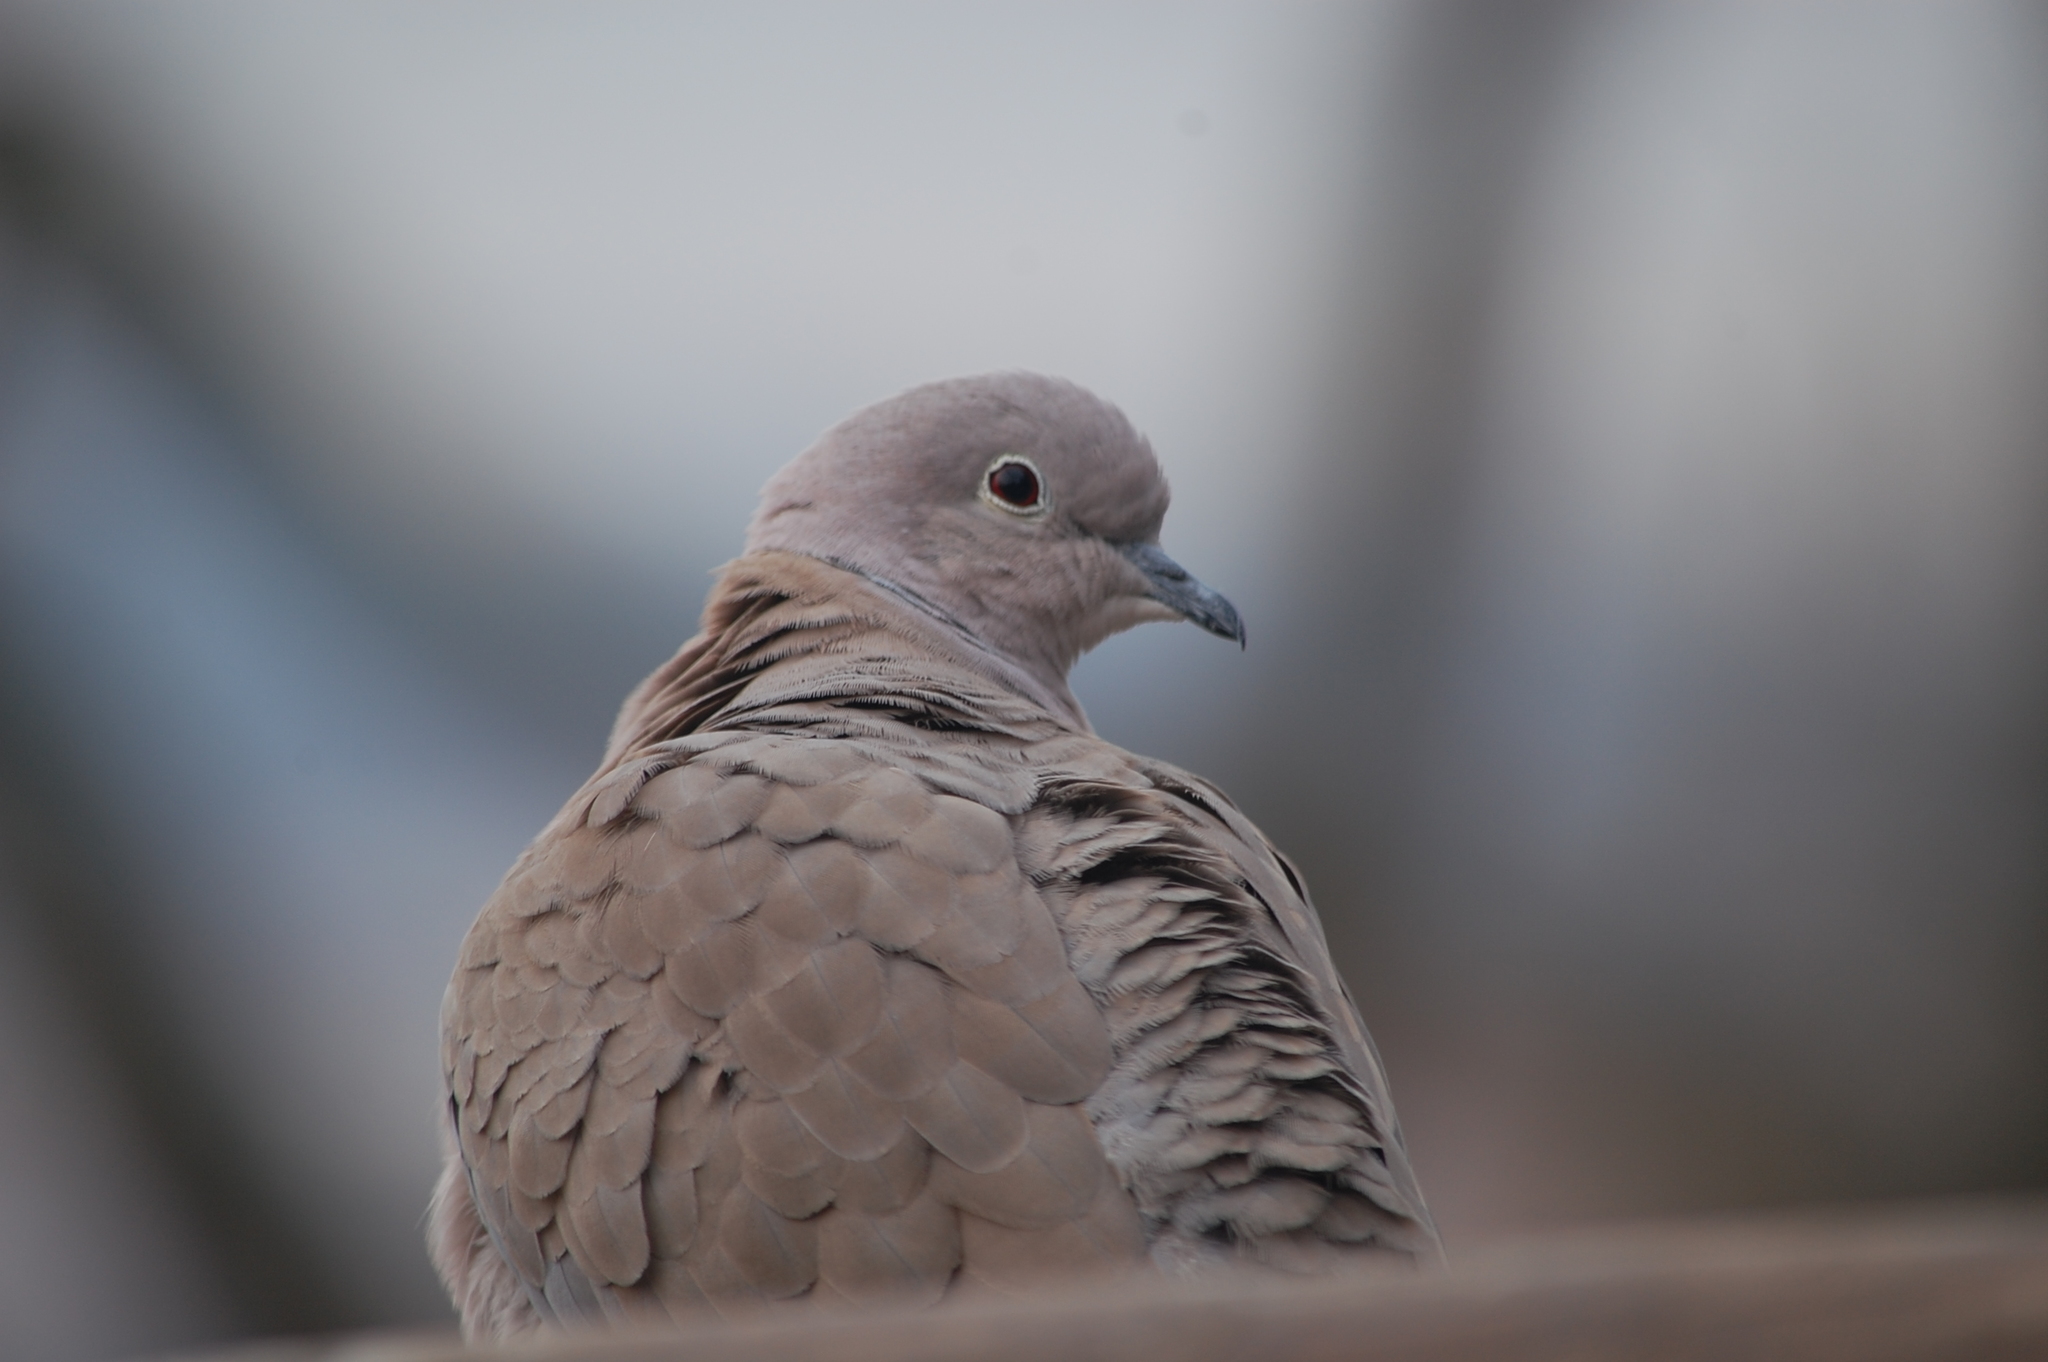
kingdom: Animalia
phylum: Chordata
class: Aves
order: Columbiformes
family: Columbidae
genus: Streptopelia
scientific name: Streptopelia decaocto
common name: Eurasian collared dove
